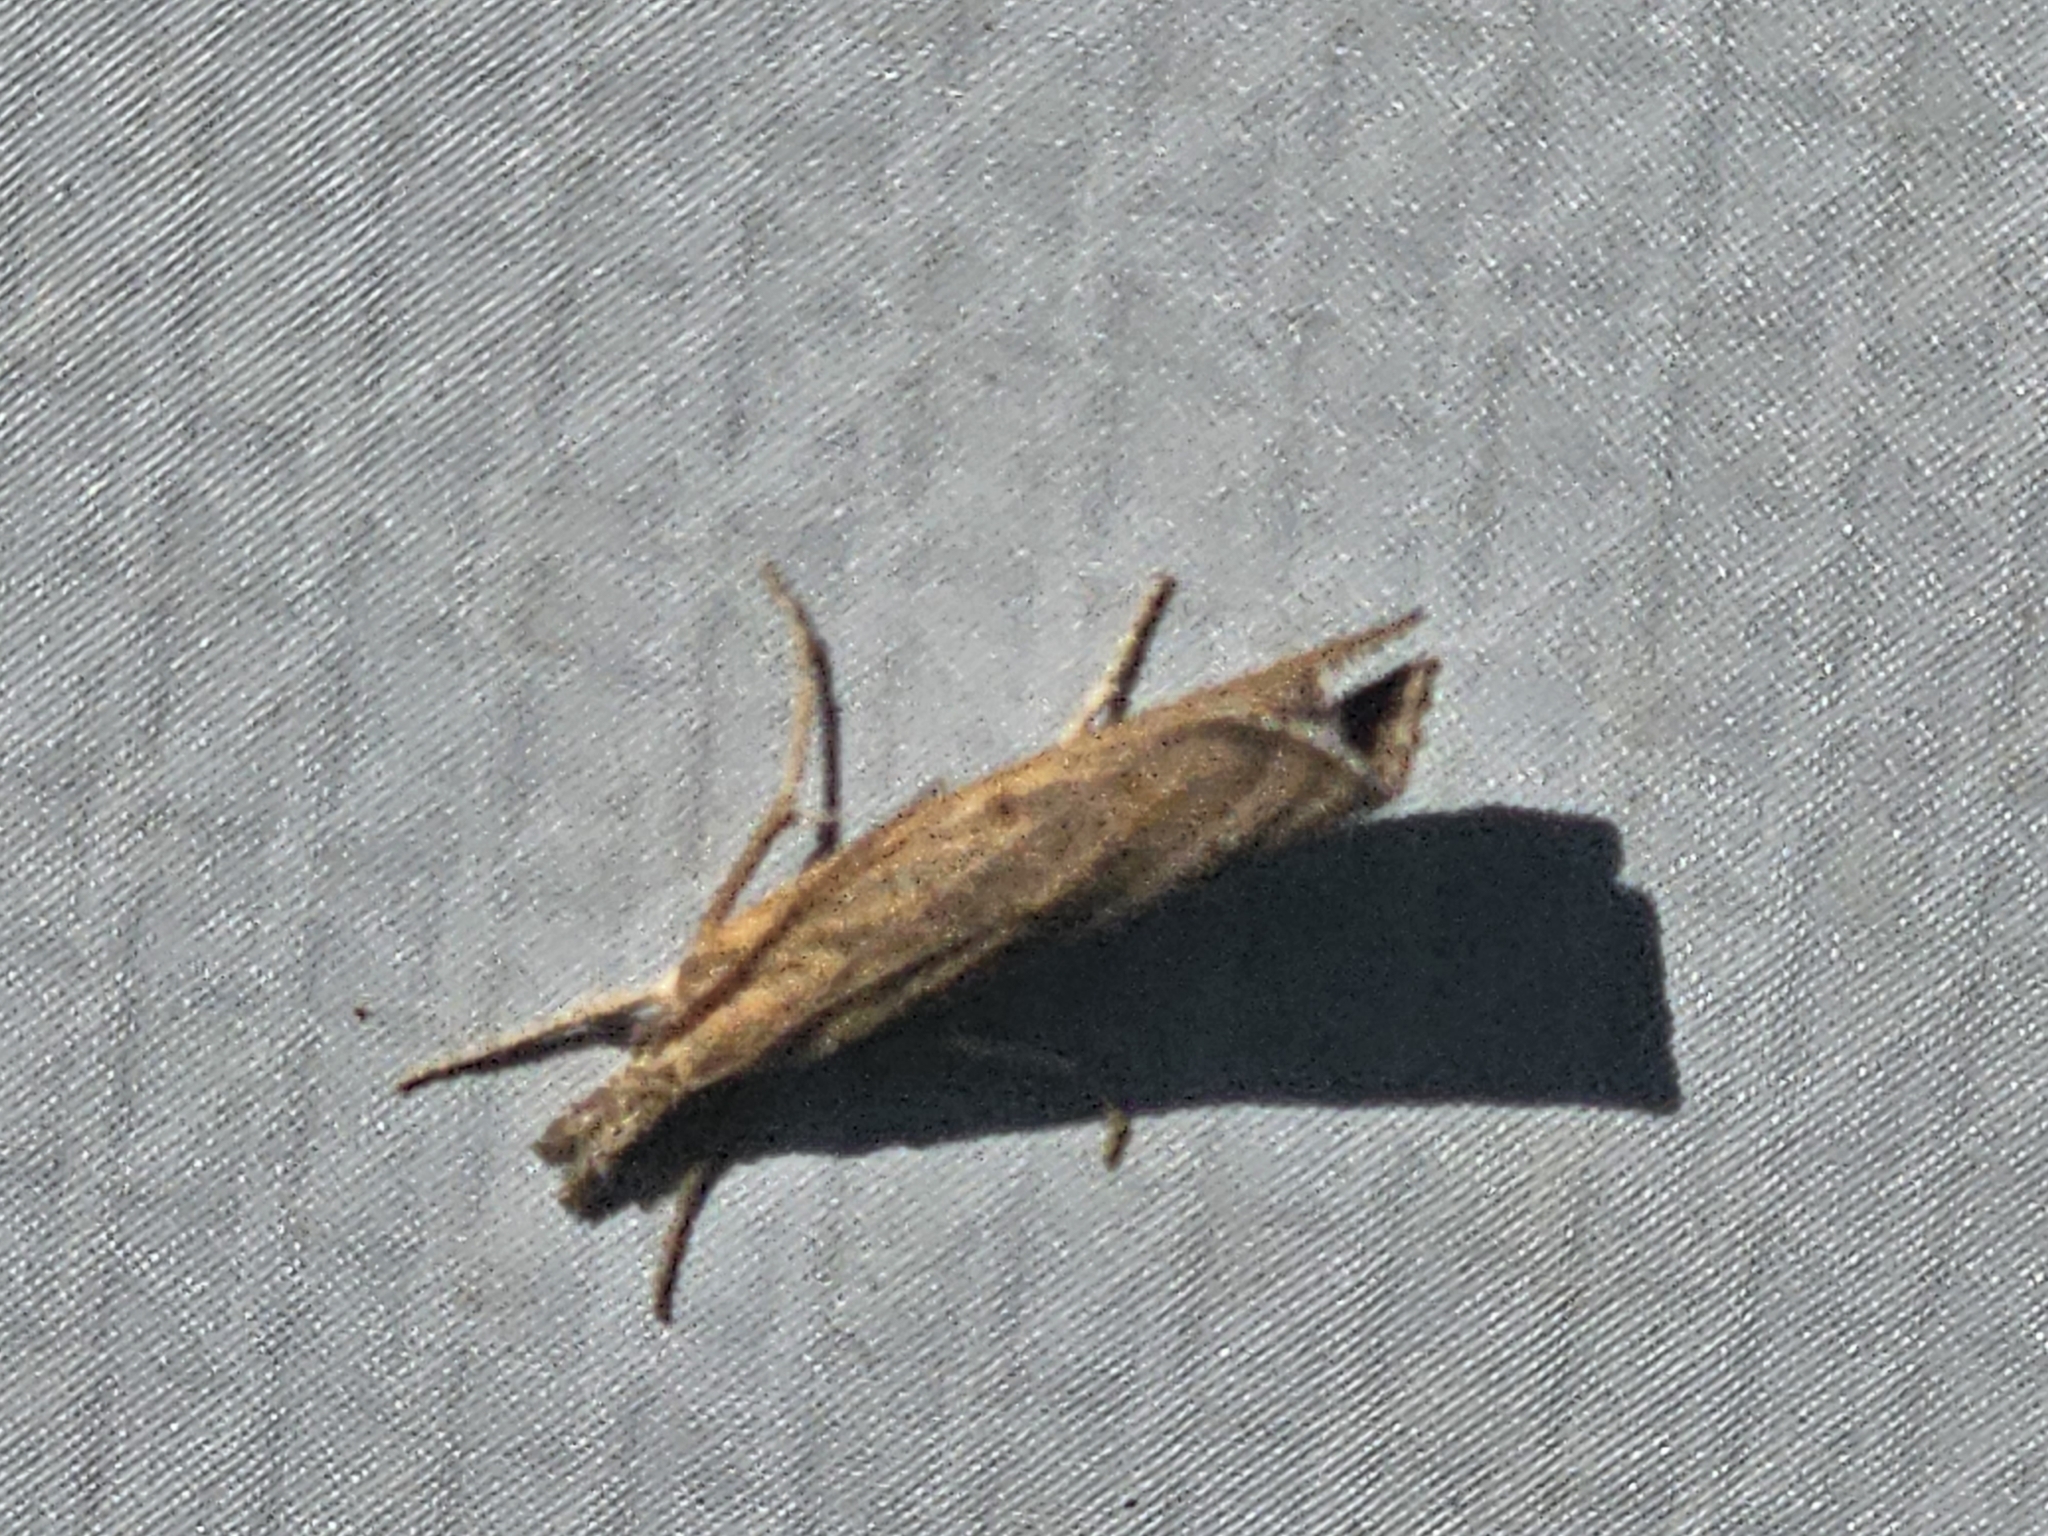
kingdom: Animalia
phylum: Arthropoda
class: Insecta
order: Lepidoptera
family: Crambidae
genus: Pediasia
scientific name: Pediasia contaminella
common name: Waste grass-veneer
